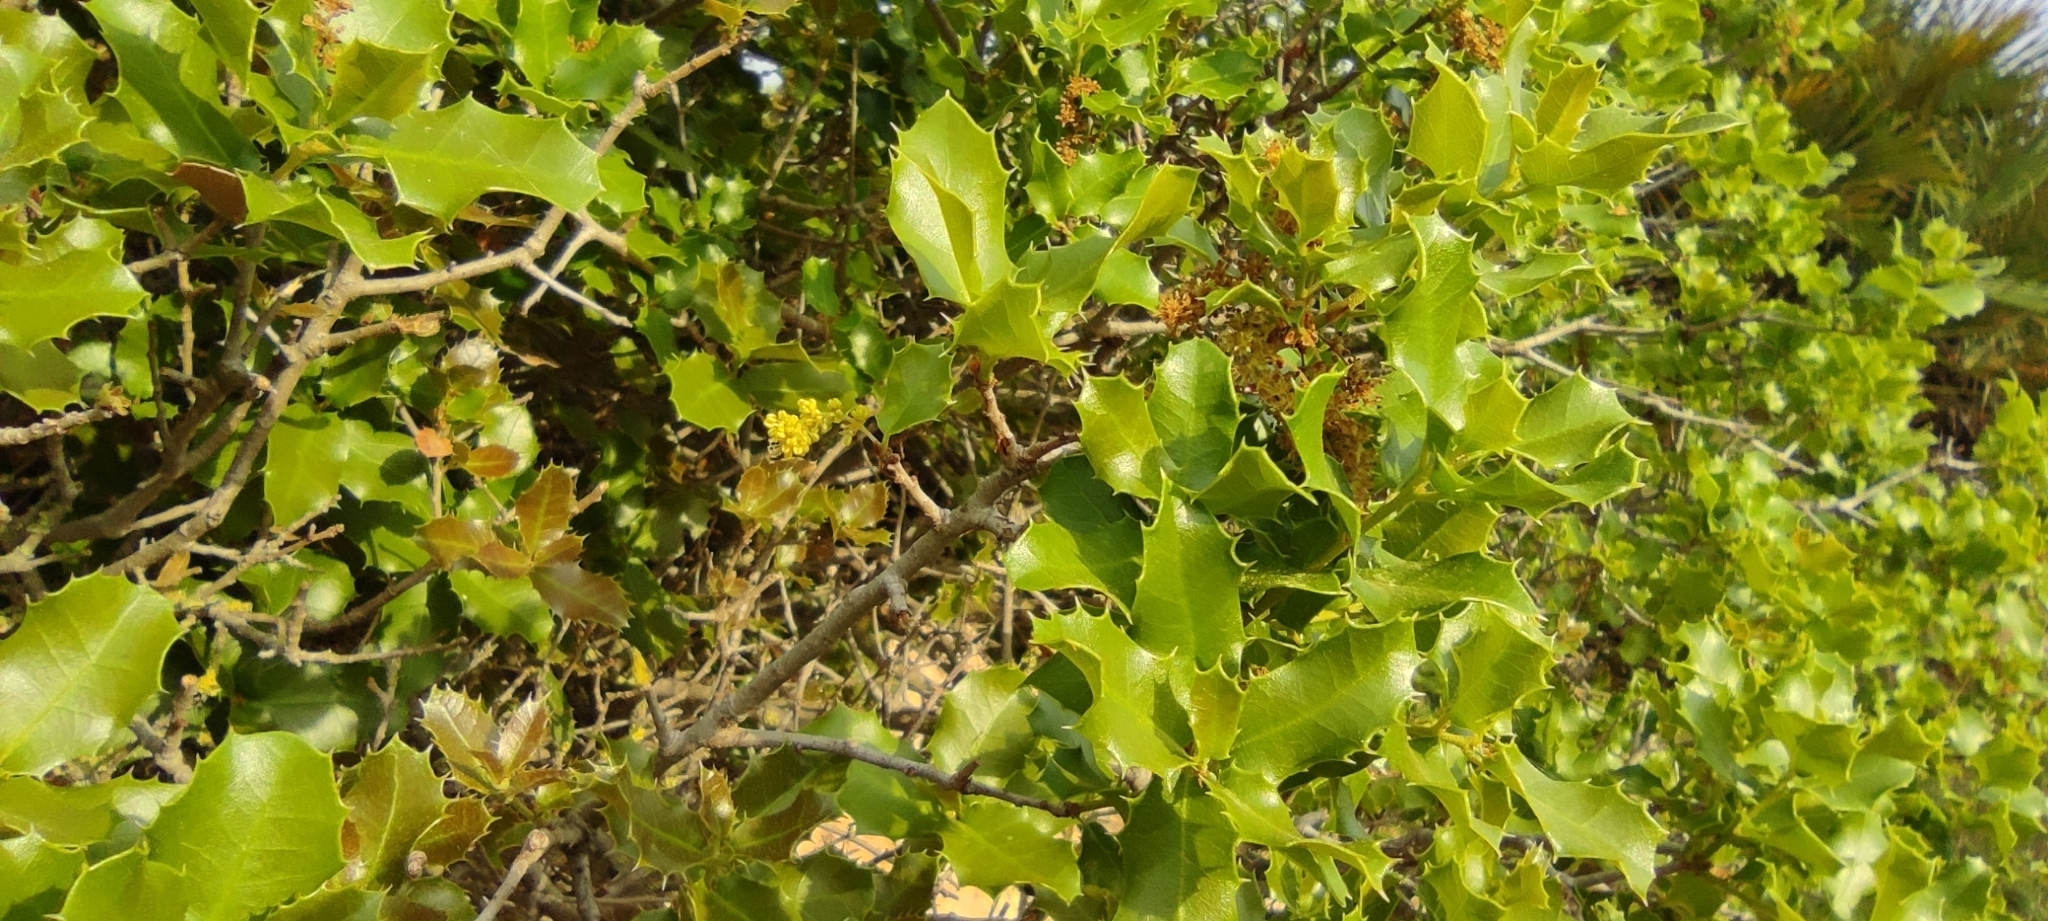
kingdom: Plantae
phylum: Tracheophyta
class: Magnoliopsida
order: Fagales
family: Fagaceae
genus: Quercus
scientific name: Quercus coccifera
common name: Kermes oak
